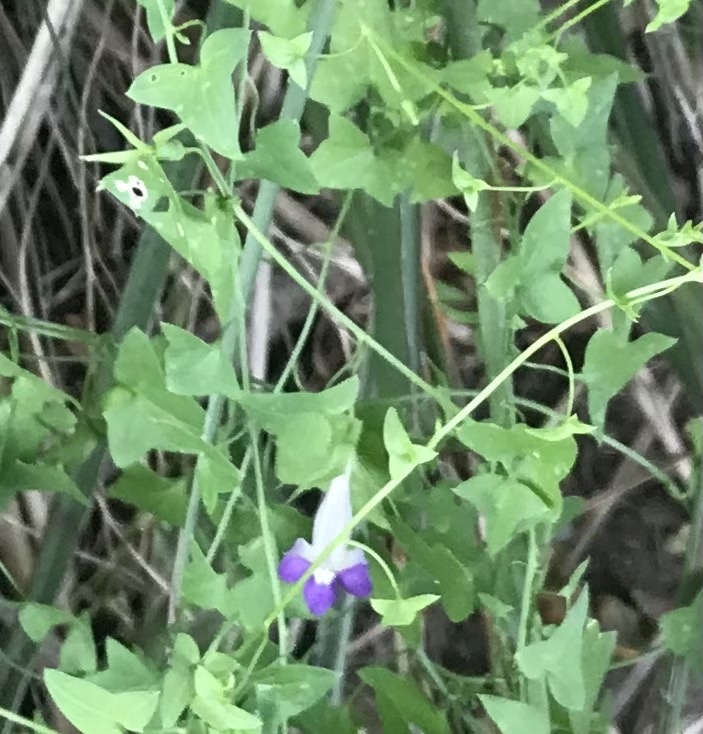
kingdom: Plantae
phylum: Tracheophyta
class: Magnoliopsida
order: Lamiales
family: Plantaginaceae
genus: Maurandella
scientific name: Maurandella antirrhiniflora
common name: Violet twining-snapdragon
